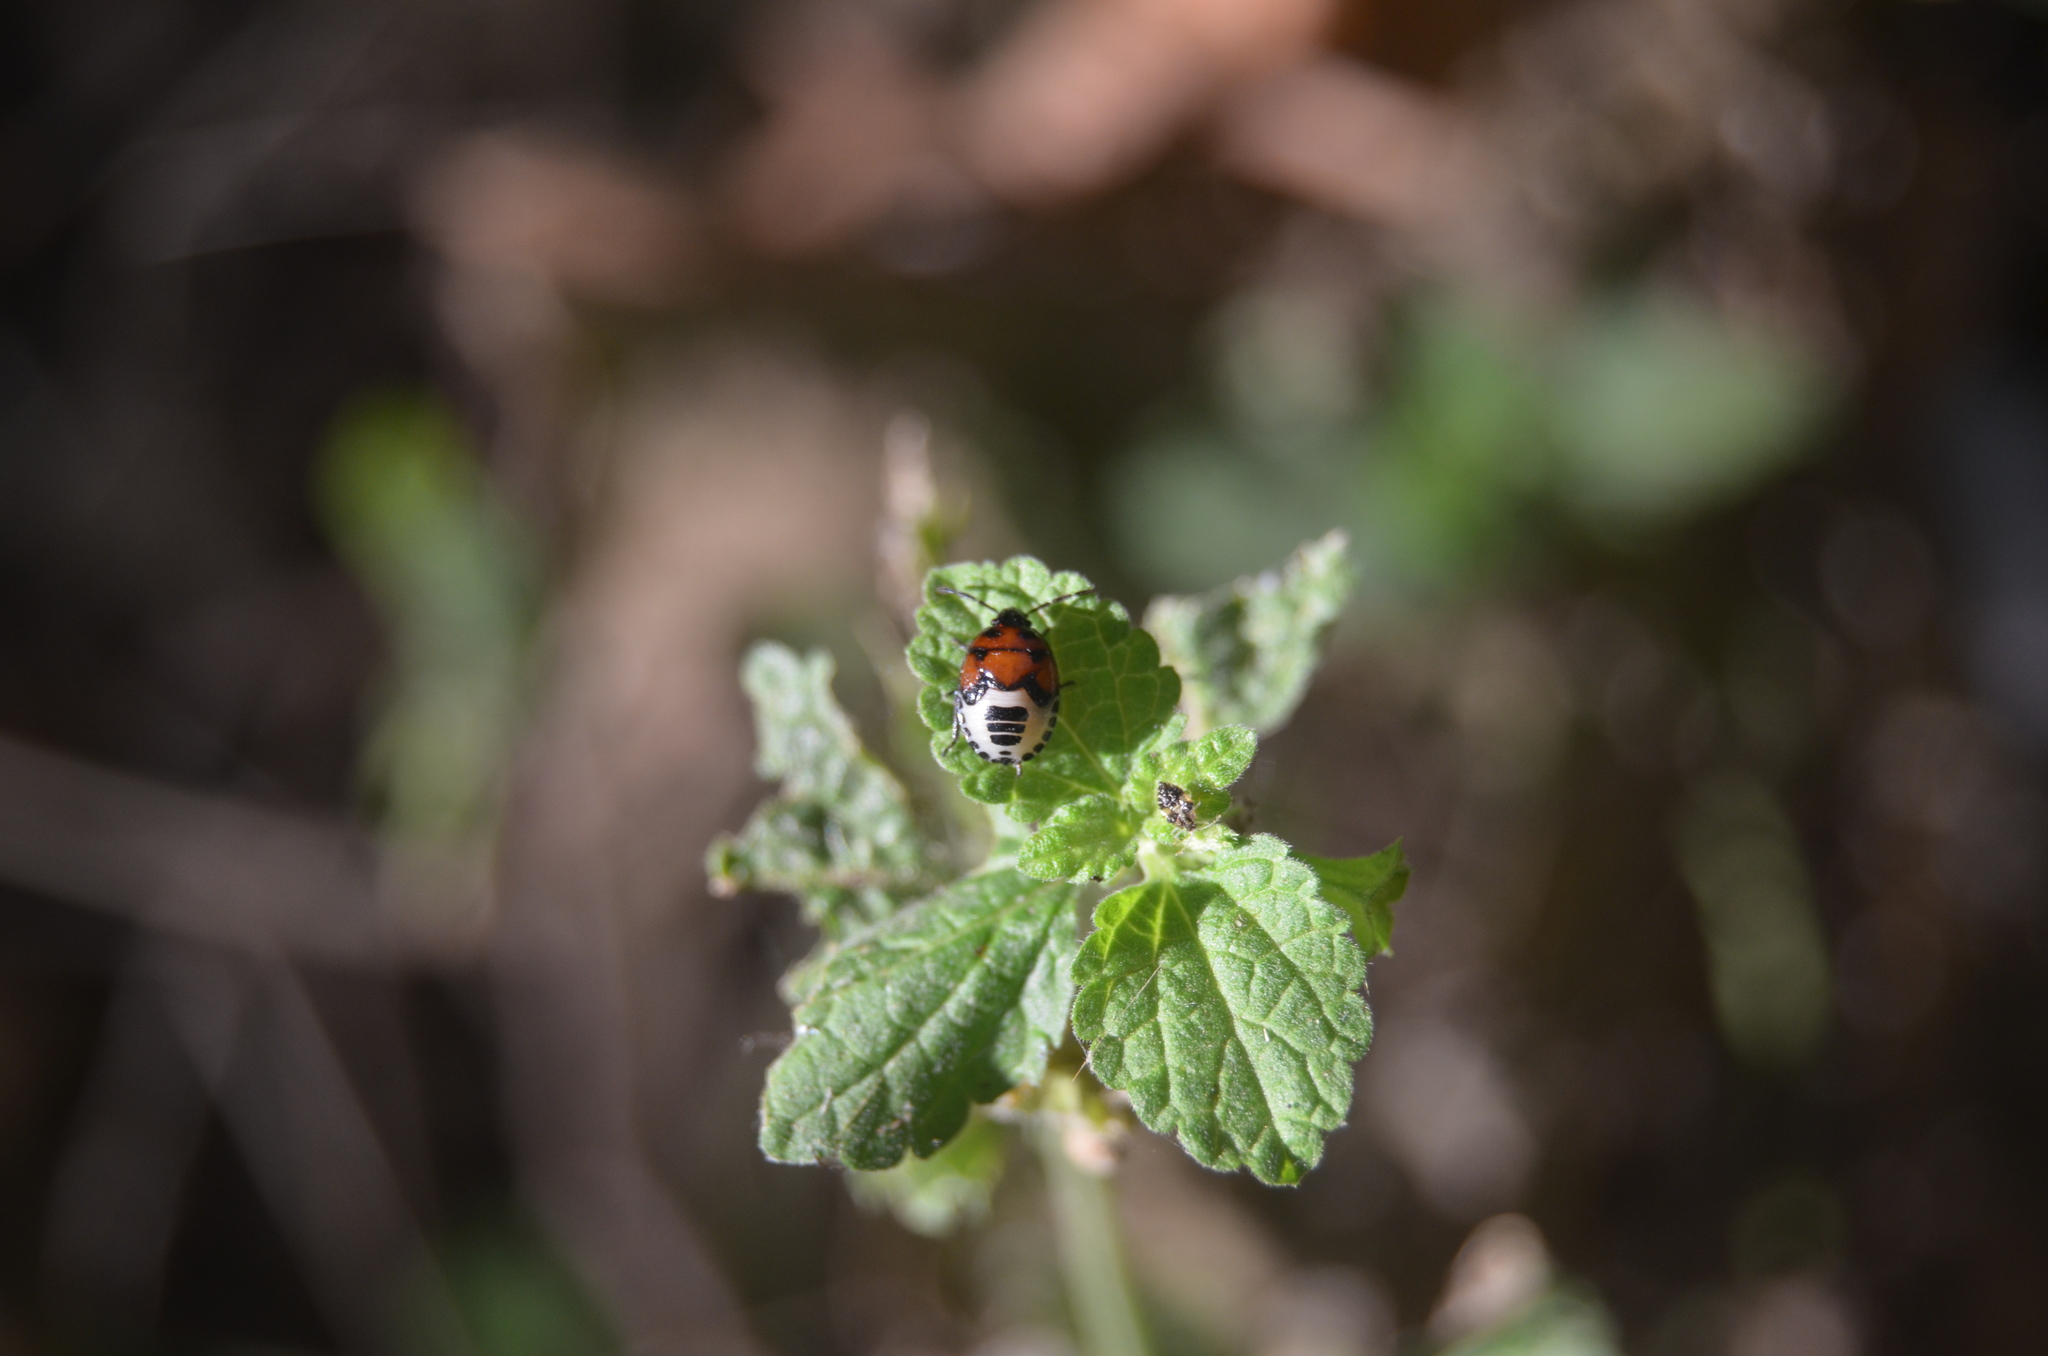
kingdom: Animalia
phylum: Arthropoda
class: Insecta
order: Hemiptera
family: Cydnidae
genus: Tritomegas
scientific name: Tritomegas sexmaculatus
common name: Rambur's pied shieldbug
